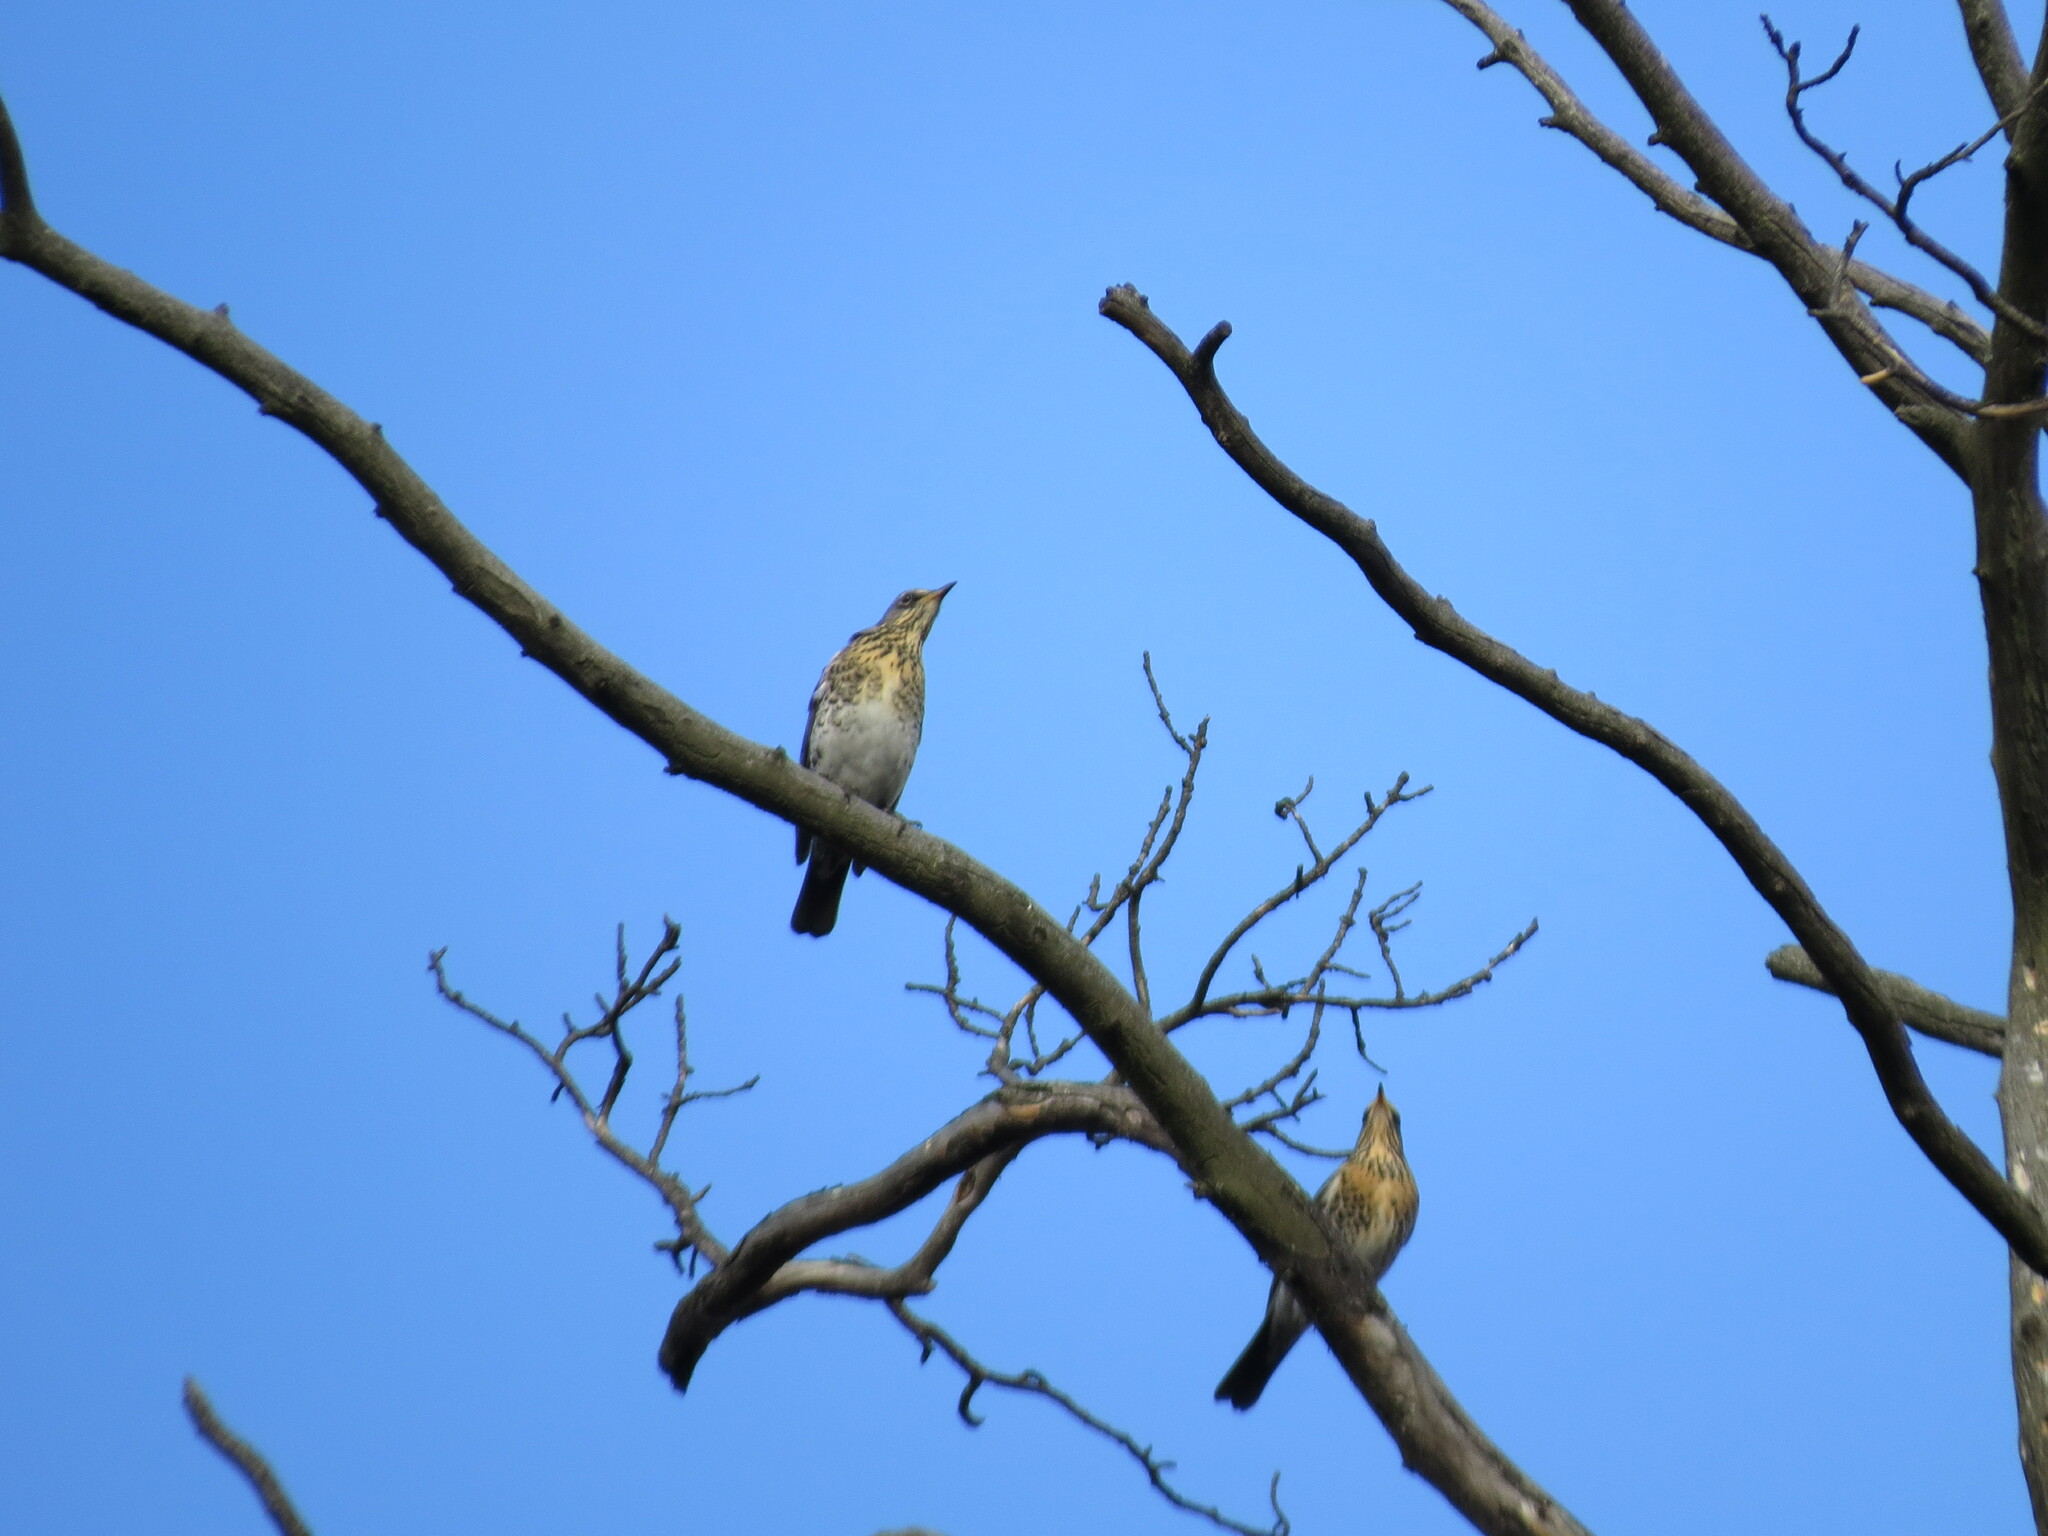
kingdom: Animalia
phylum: Chordata
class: Aves
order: Passeriformes
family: Turdidae
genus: Turdus
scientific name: Turdus pilaris
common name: Fieldfare
